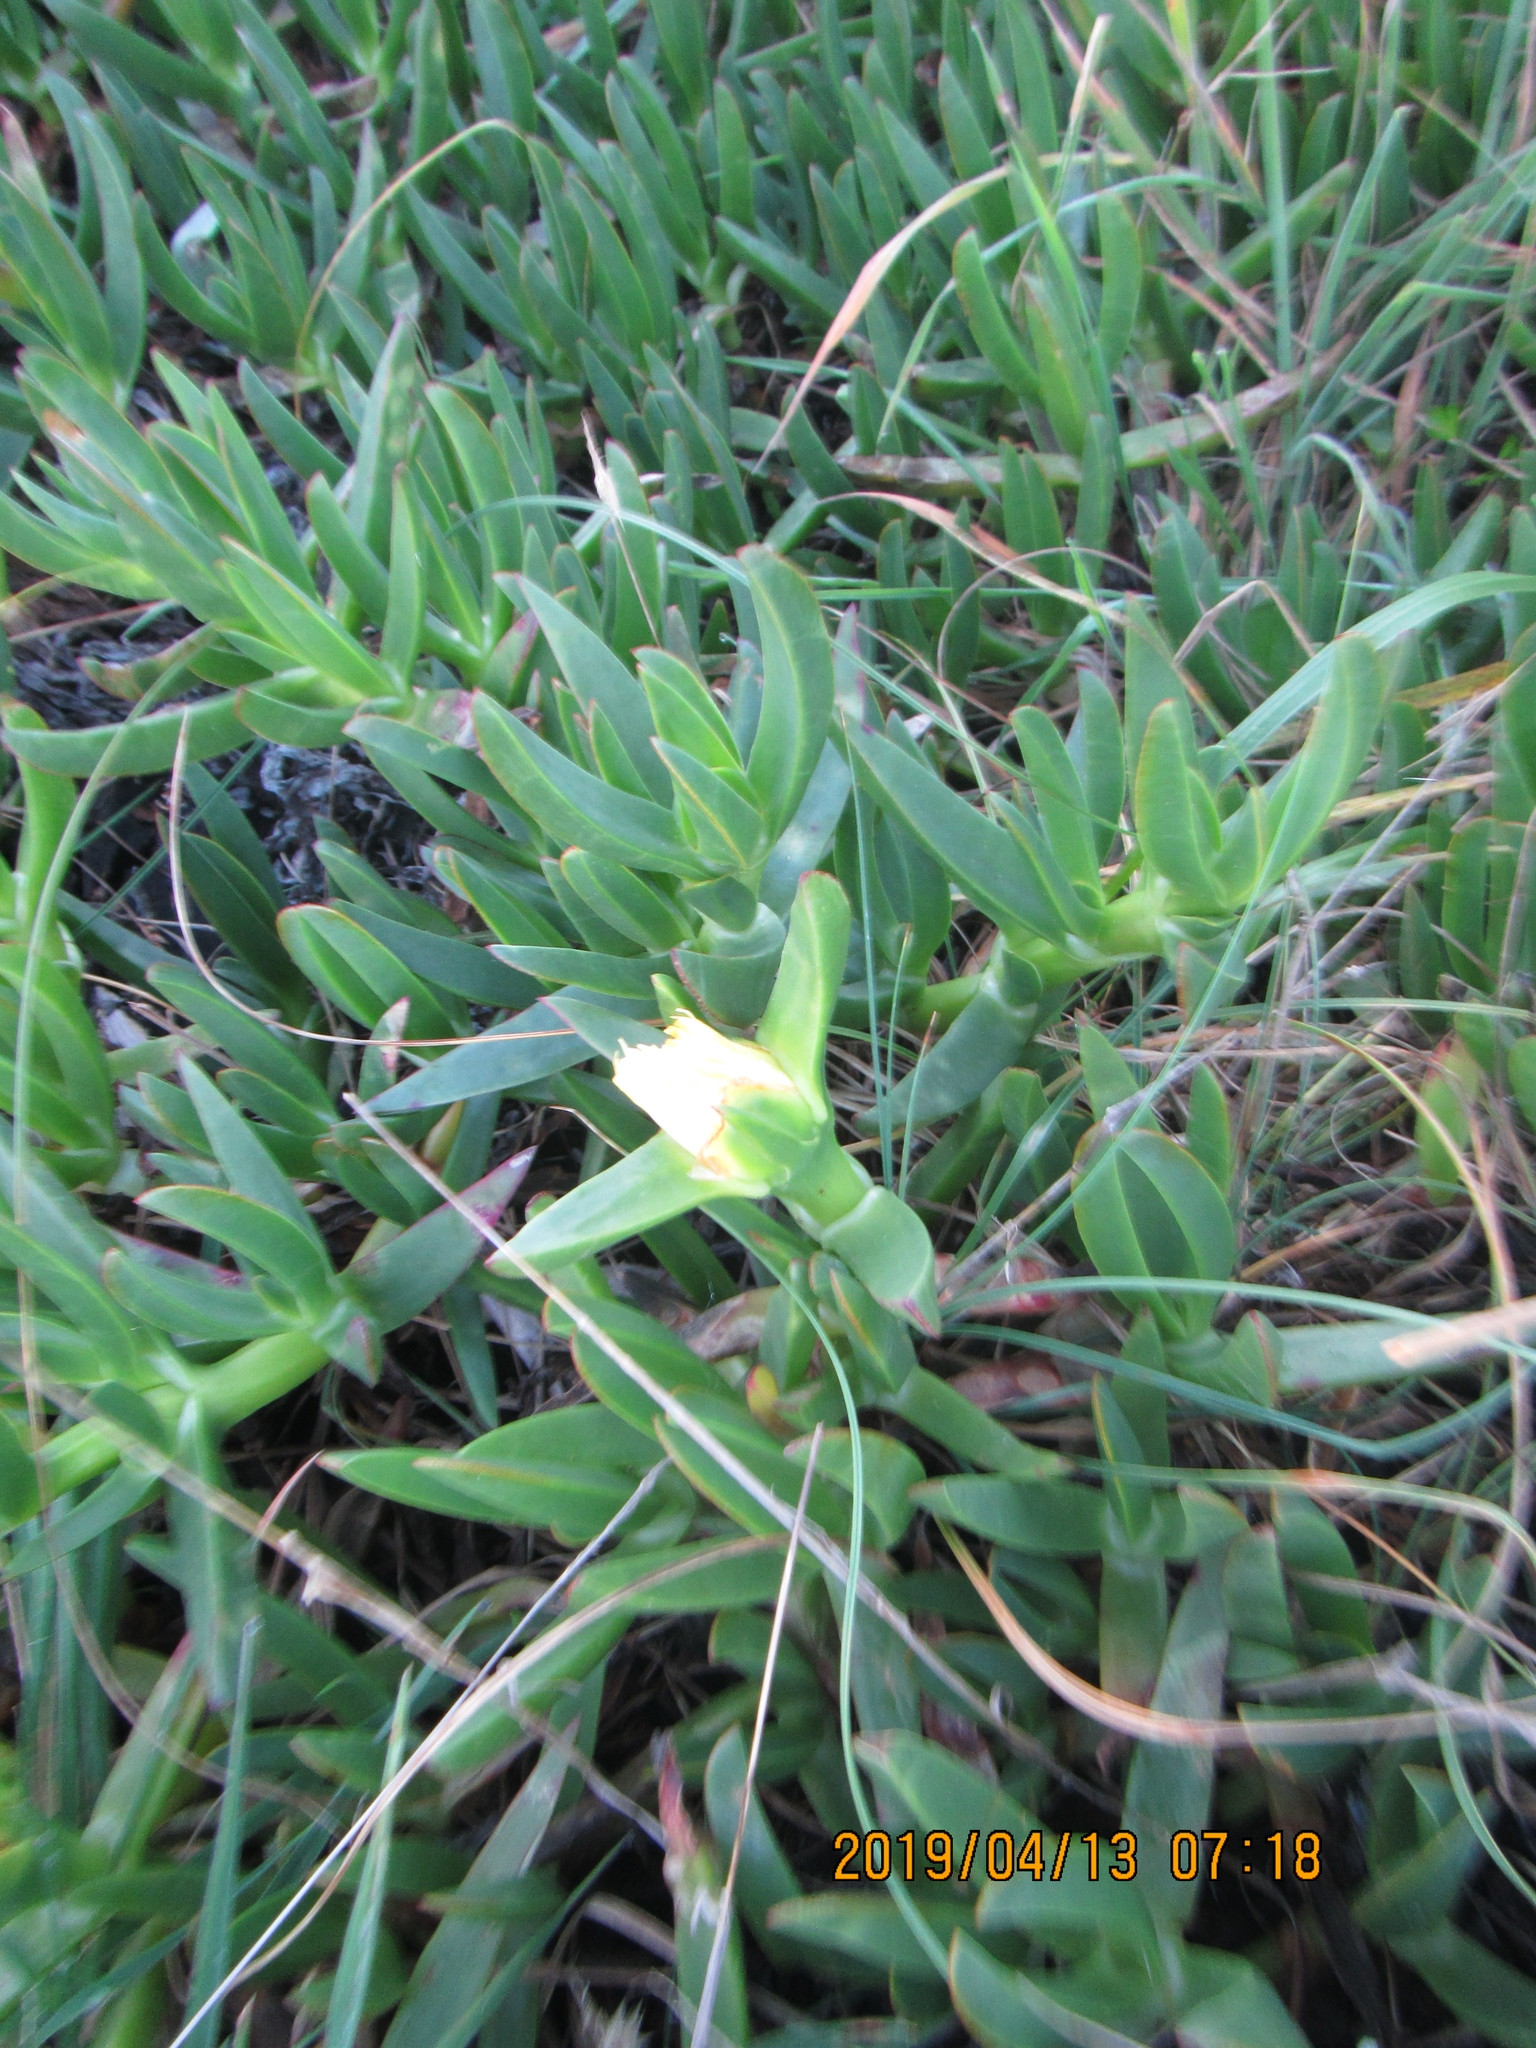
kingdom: Plantae
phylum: Tracheophyta
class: Magnoliopsida
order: Caryophyllales
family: Aizoaceae
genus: Carpobrotus
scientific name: Carpobrotus edulis
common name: Hottentot-fig
